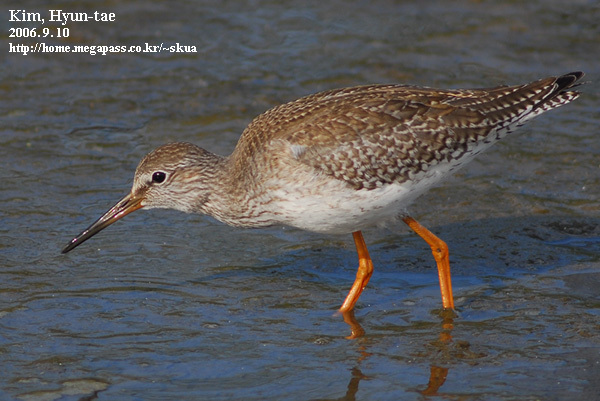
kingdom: Animalia
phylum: Chordata
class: Aves
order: Charadriiformes
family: Scolopacidae
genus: Tringa
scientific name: Tringa totanus
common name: Common redshank
